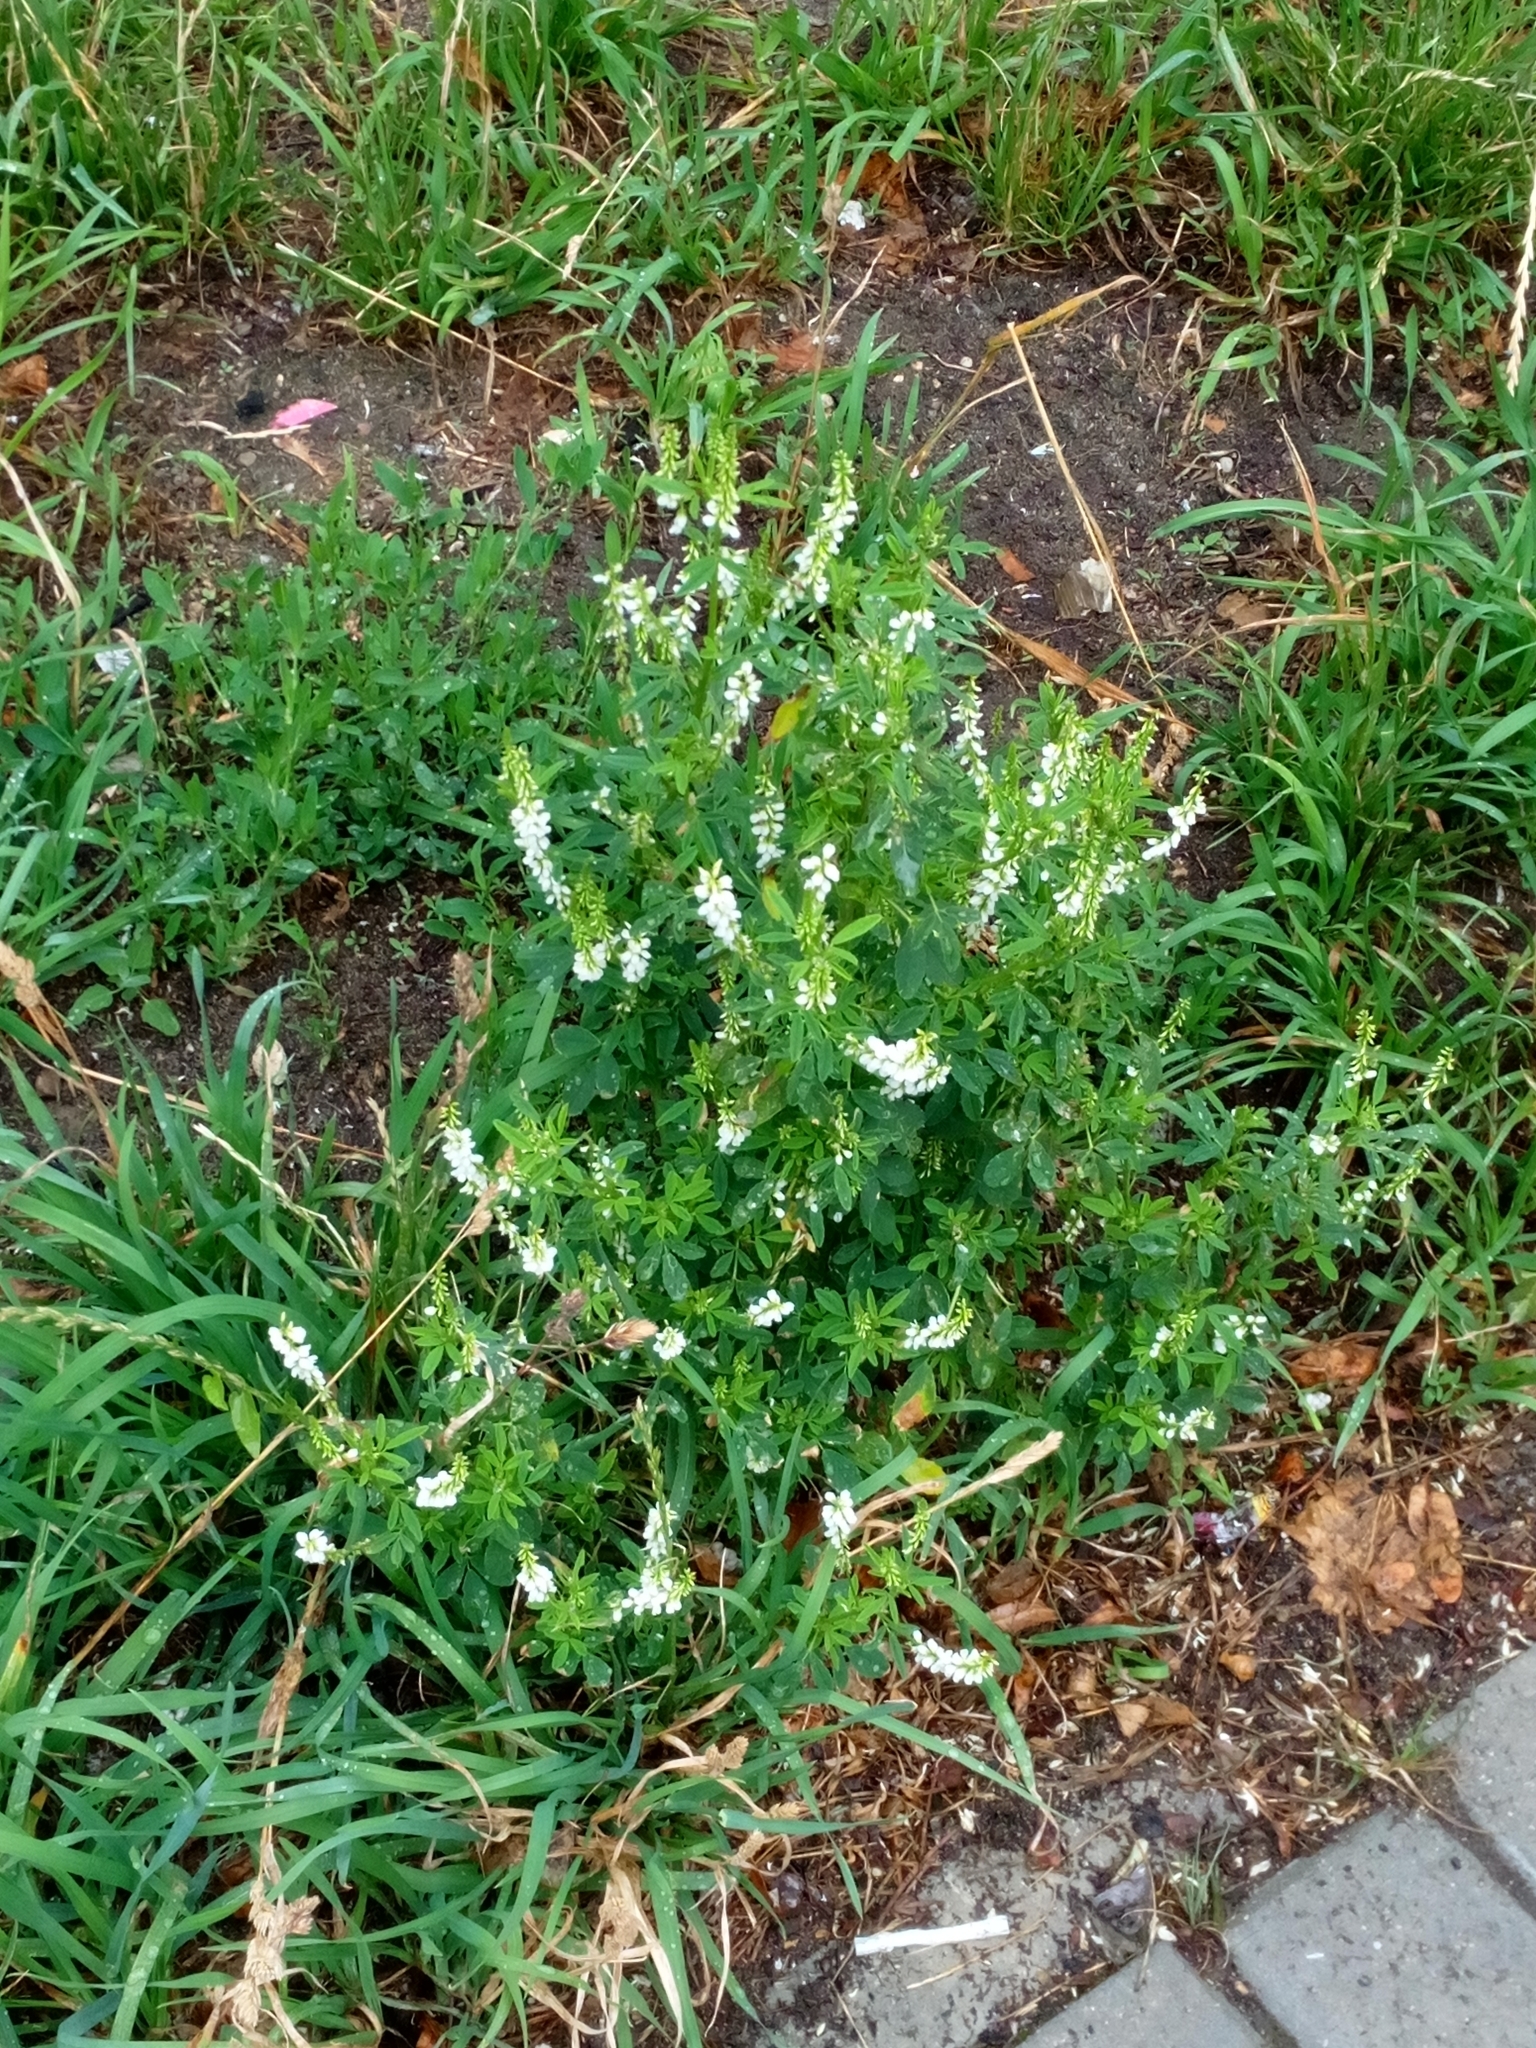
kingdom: Plantae
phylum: Tracheophyta
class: Magnoliopsida
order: Fabales
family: Fabaceae
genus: Melilotus
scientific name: Melilotus albus
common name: White melilot
